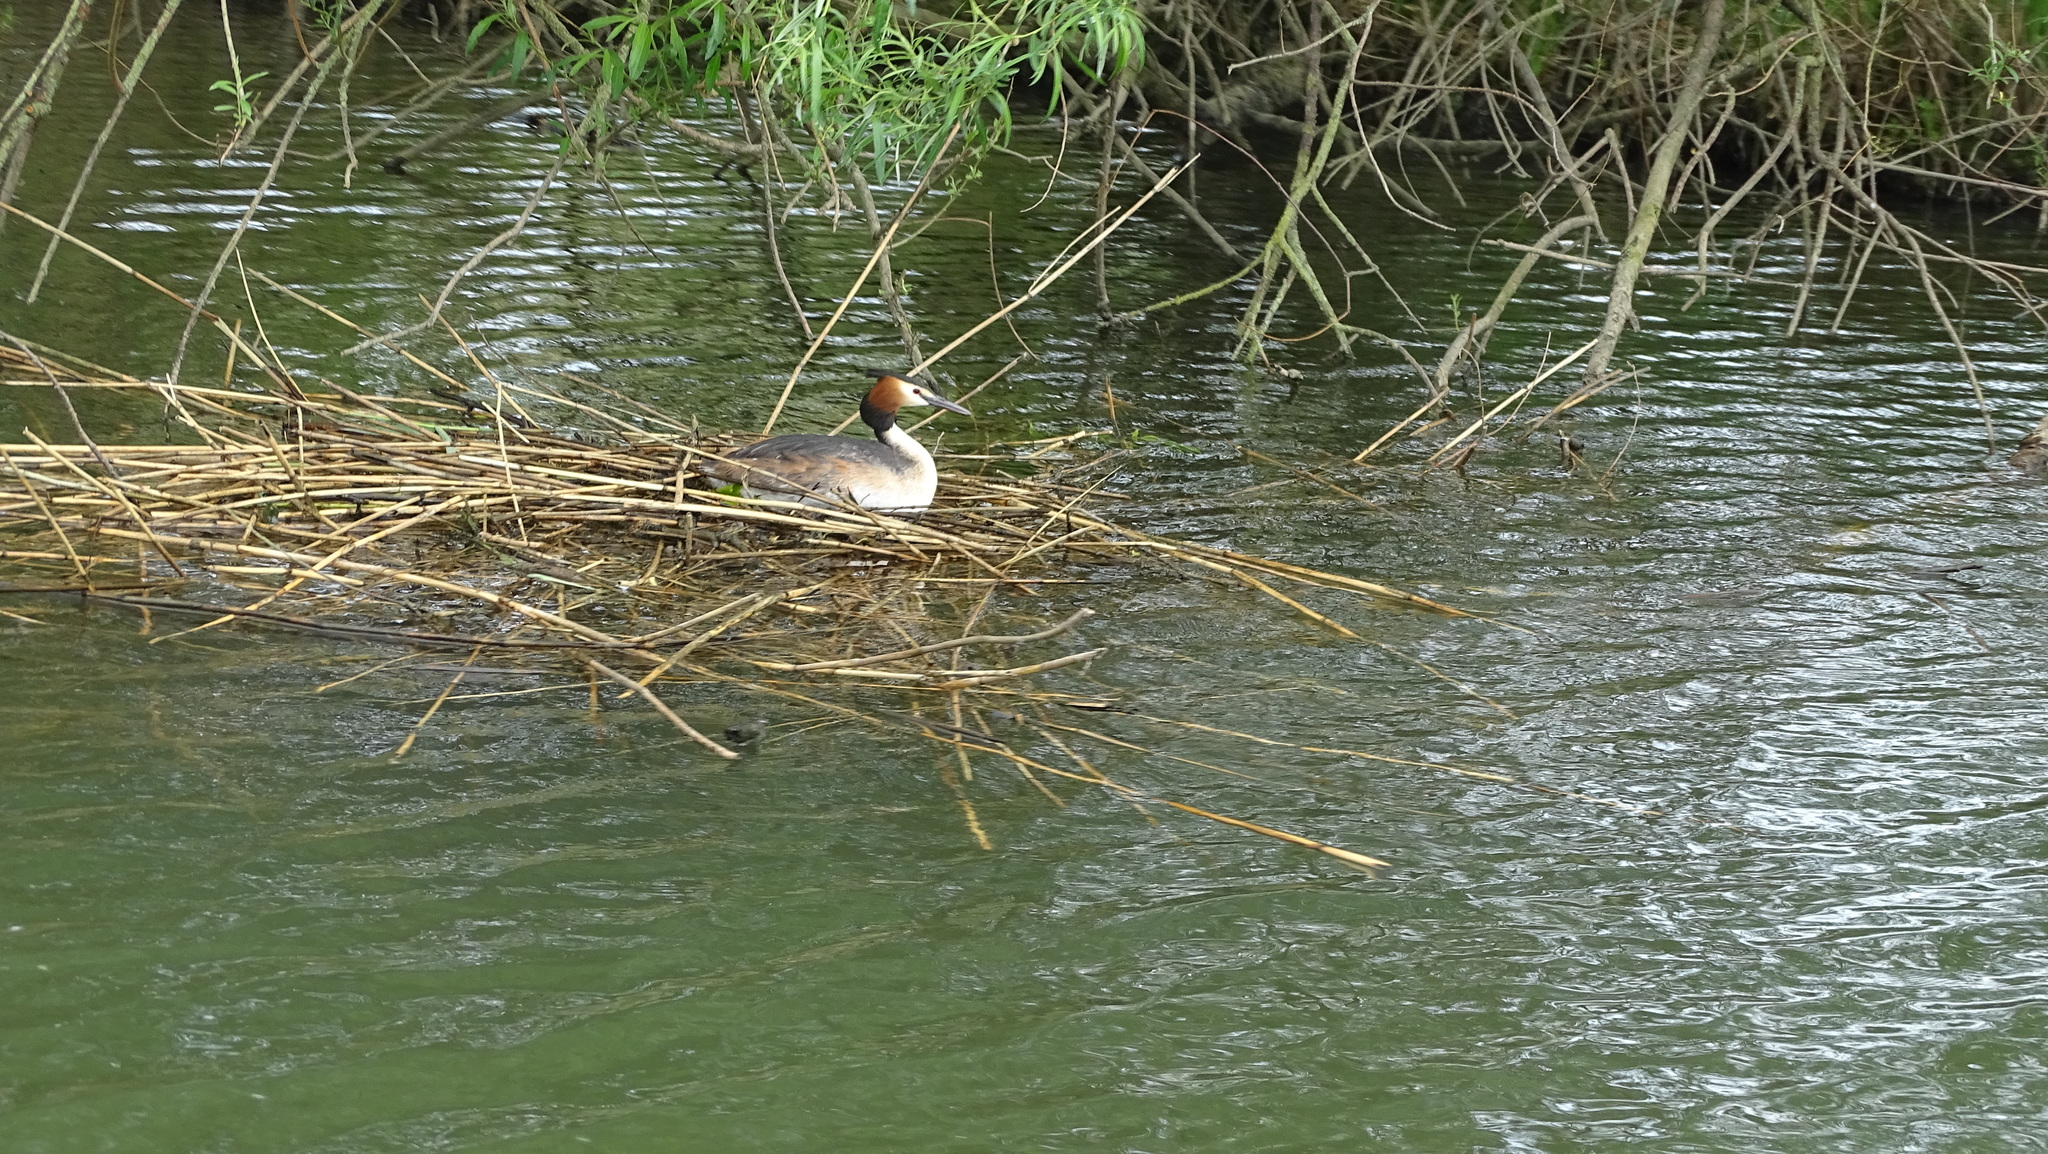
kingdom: Animalia
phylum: Chordata
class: Aves
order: Podicipediformes
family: Podicipedidae
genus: Podiceps
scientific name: Podiceps cristatus
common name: Great crested grebe
